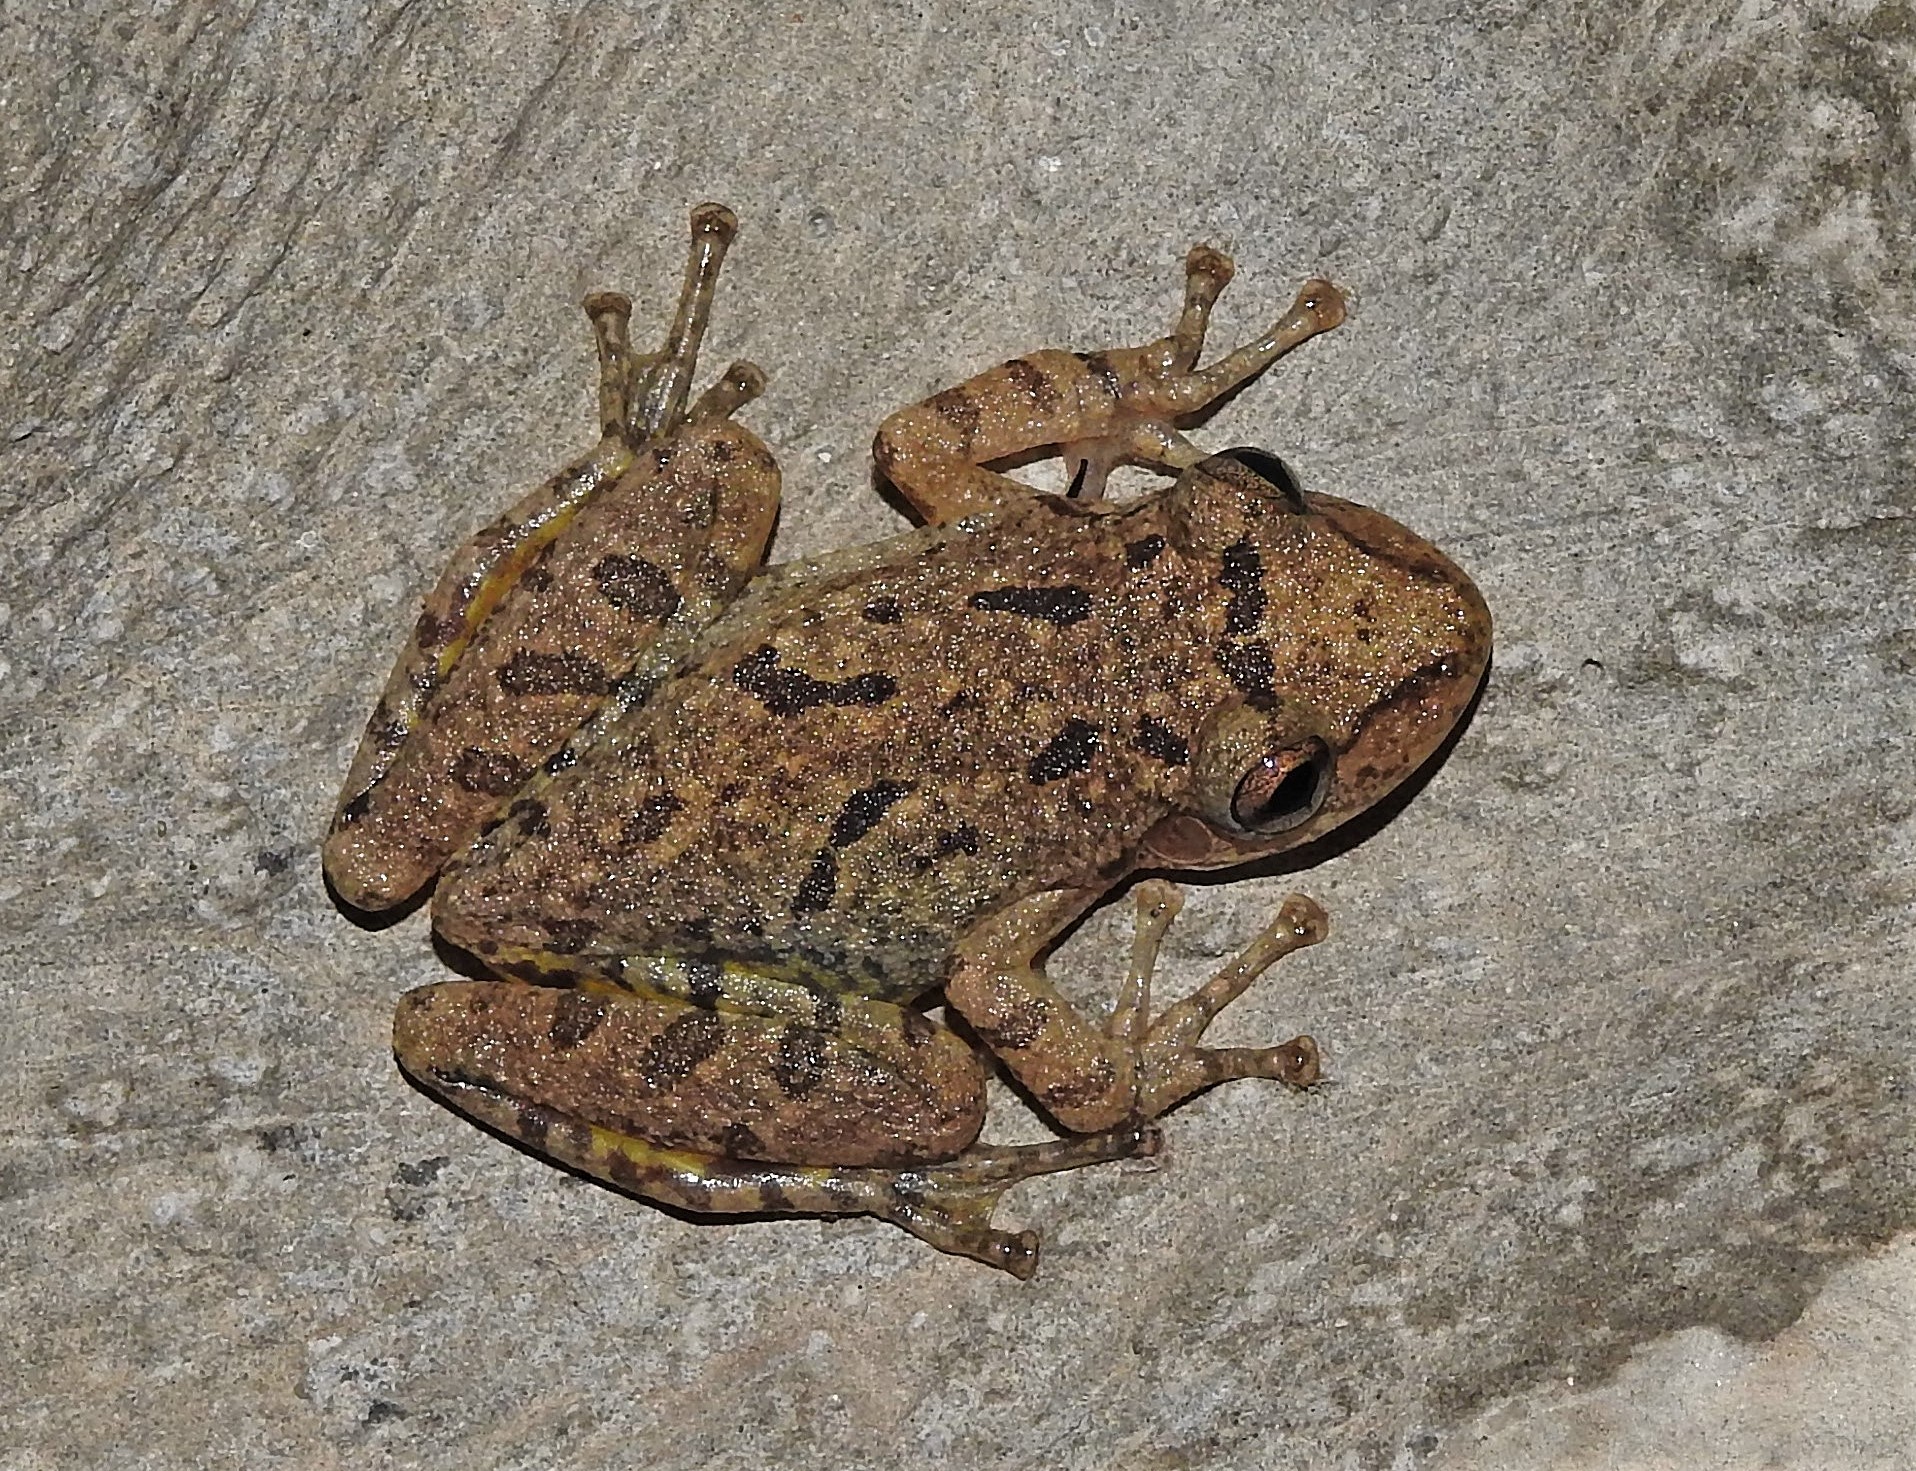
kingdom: Animalia
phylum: Chordata
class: Amphibia
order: Anura
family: Hylidae
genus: Scinax
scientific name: Scinax fuscovarius
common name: Fuscous-blotched treefrog
